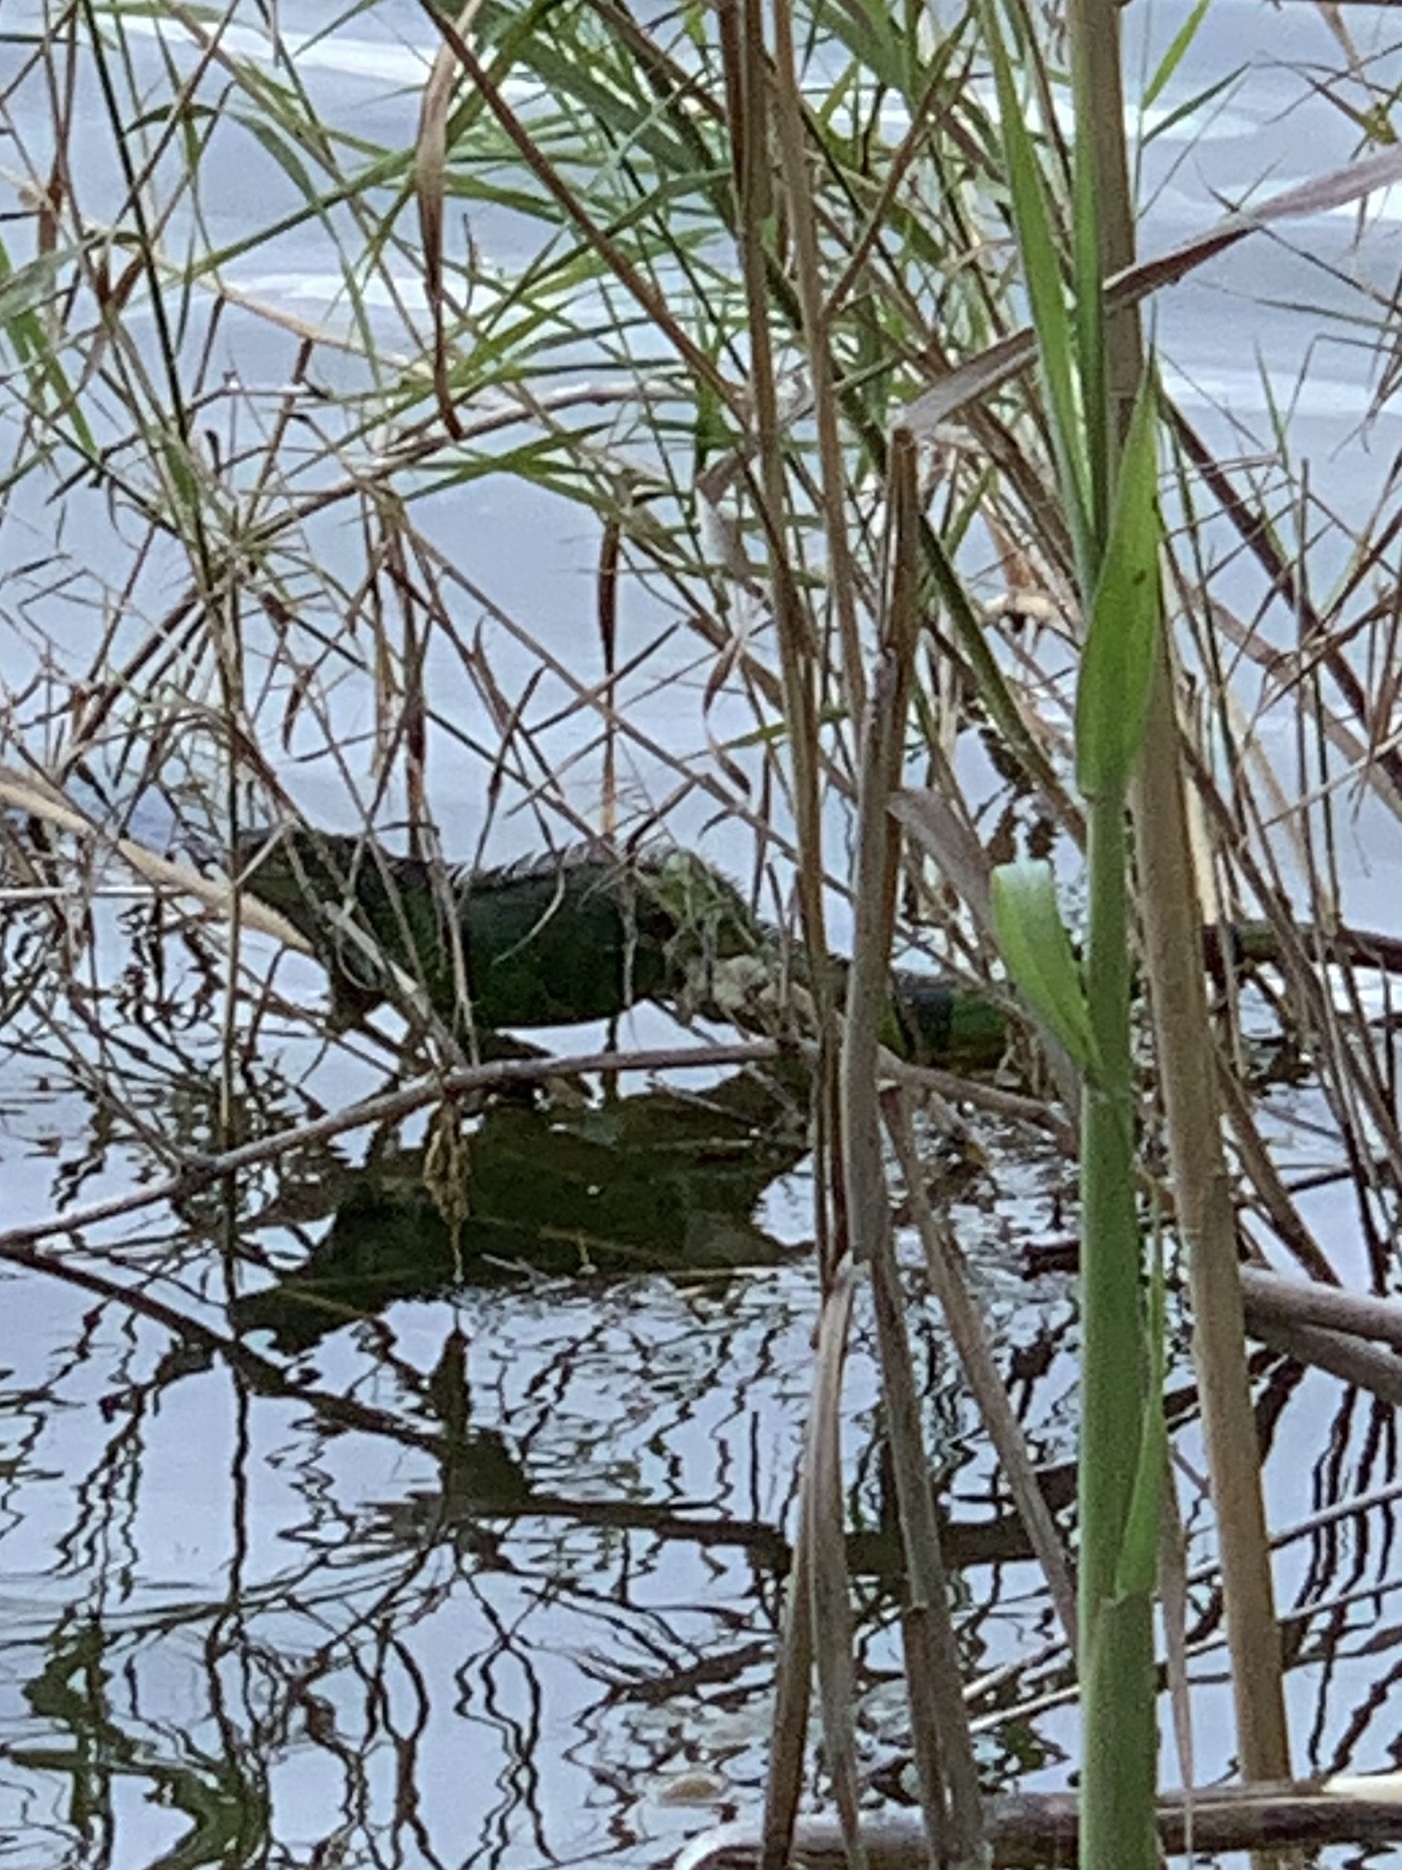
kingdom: Animalia
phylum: Chordata
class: Squamata
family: Iguanidae
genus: Iguana
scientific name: Iguana iguana
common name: Green iguana
